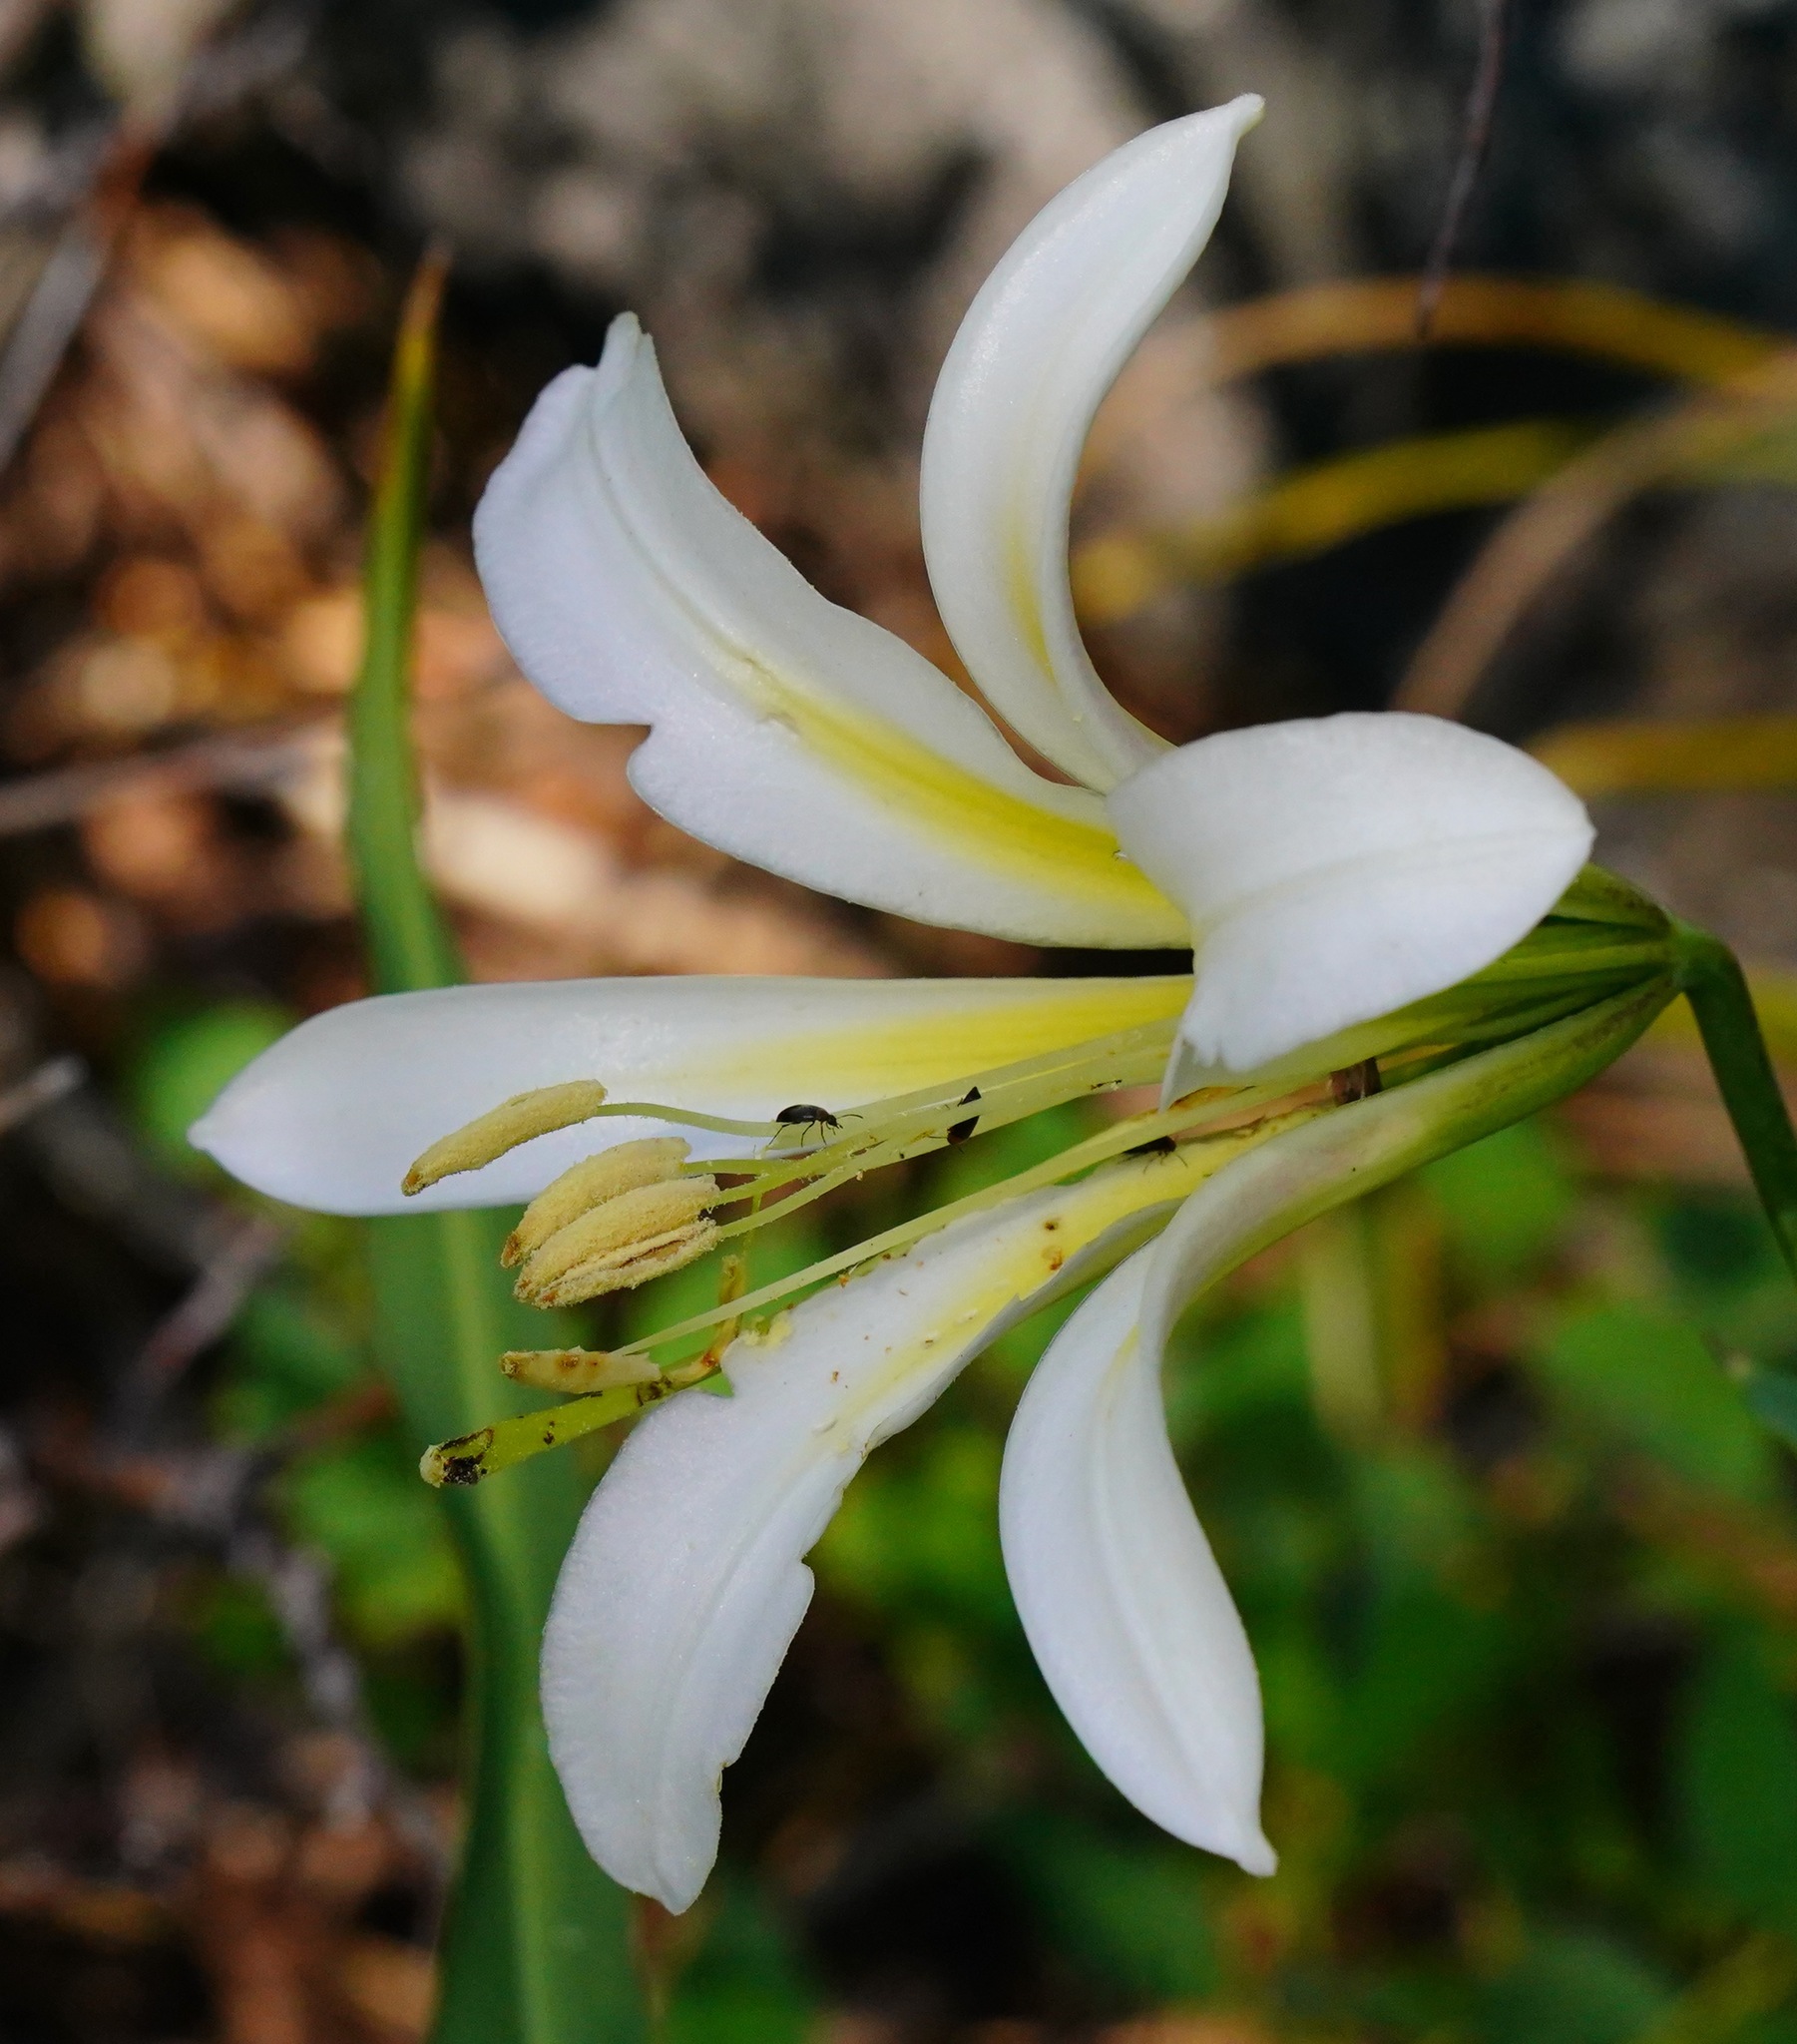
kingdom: Plantae
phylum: Tracheophyta
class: Liliopsida
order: Liliales
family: Liliaceae
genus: Lilium
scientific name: Lilium washingtonianum
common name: Washington lily
